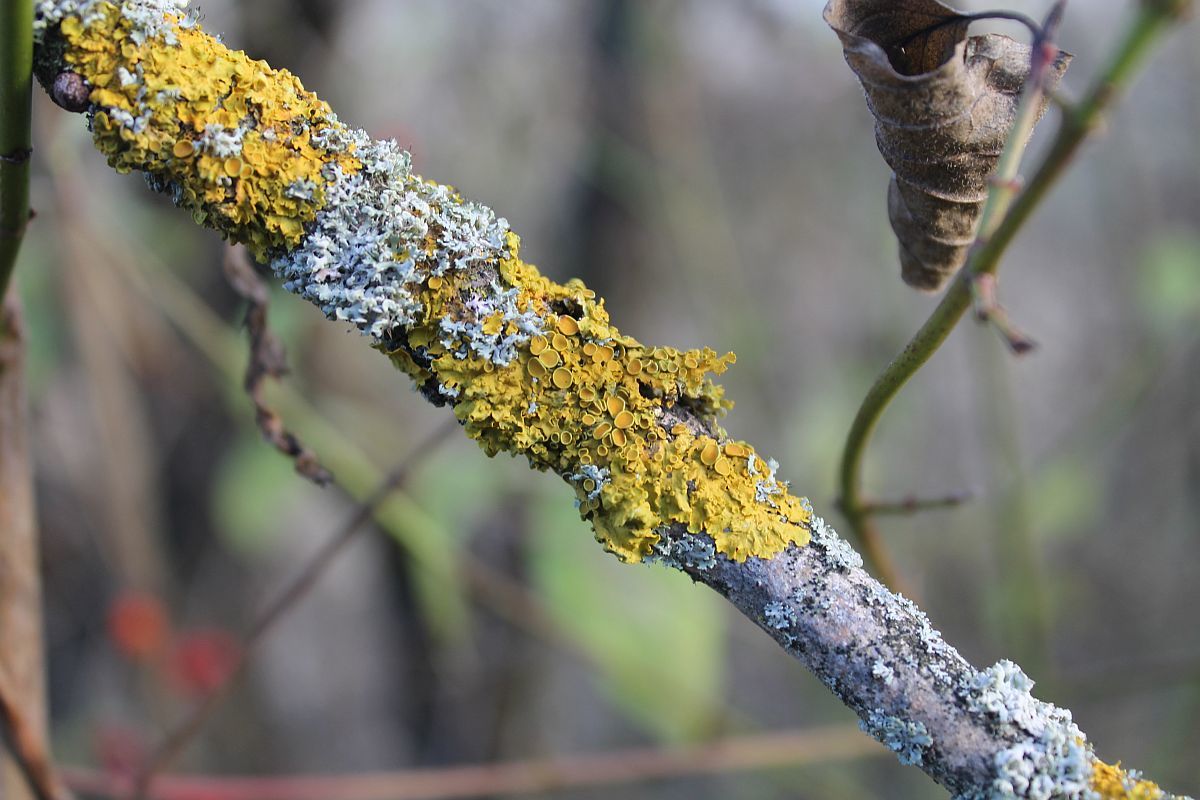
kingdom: Fungi
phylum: Ascomycota
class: Lecanoromycetes
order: Teloschistales
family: Teloschistaceae
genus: Xanthoria
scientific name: Xanthoria parietina
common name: Common orange lichen
